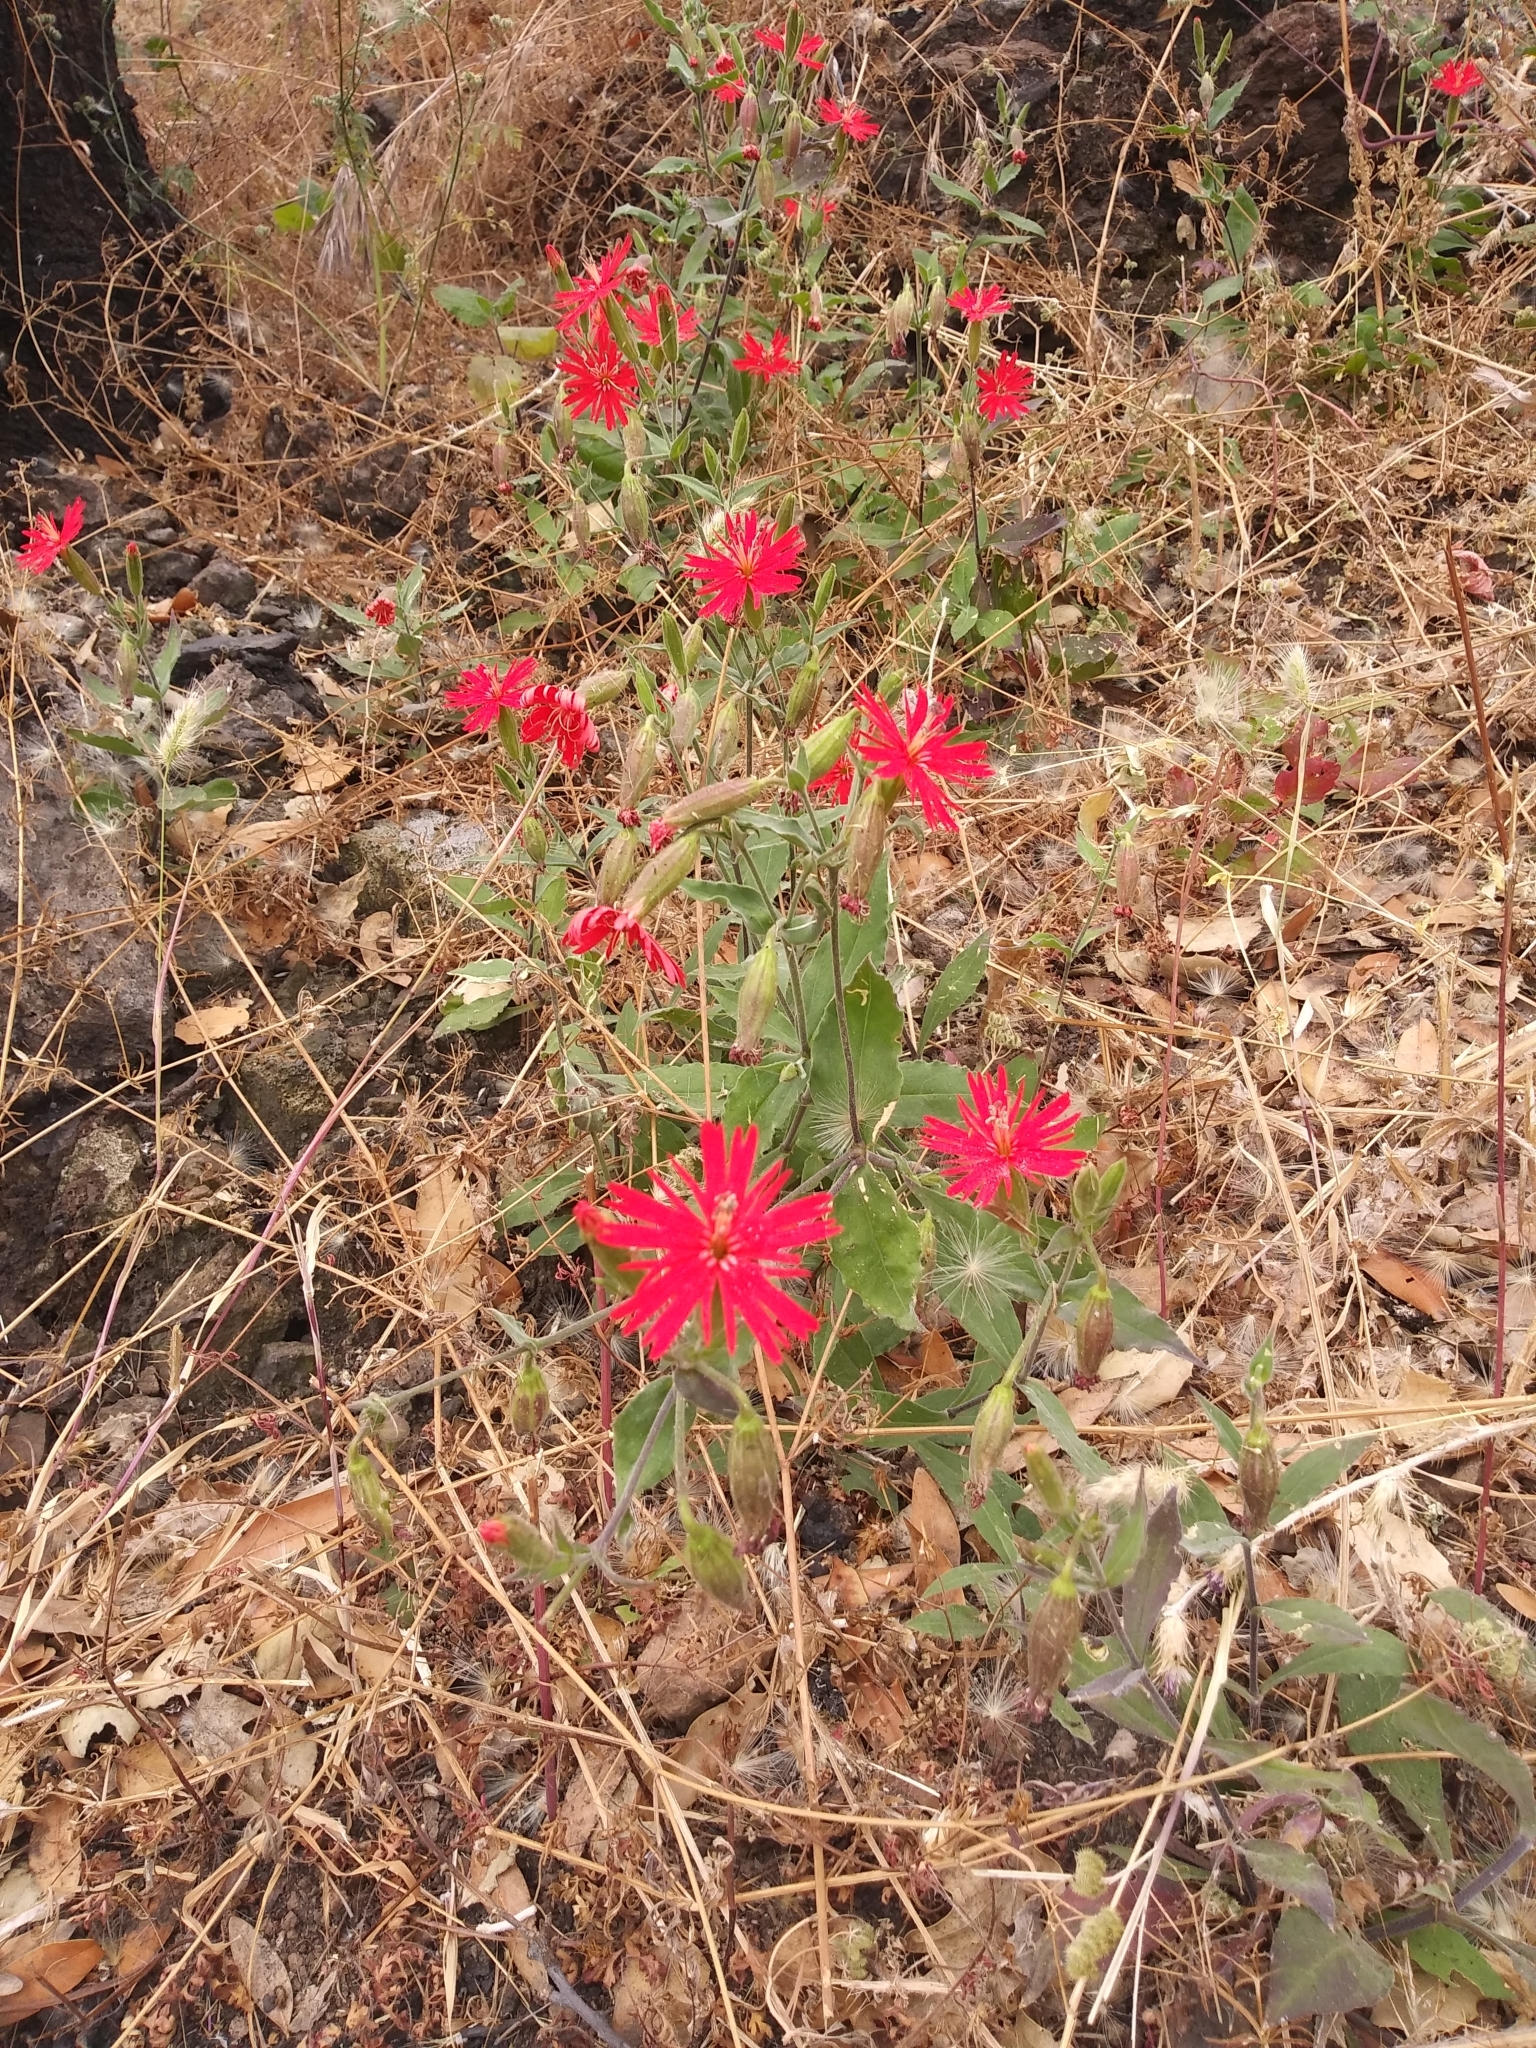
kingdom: Plantae
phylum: Tracheophyta
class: Magnoliopsida
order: Caryophyllales
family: Caryophyllaceae
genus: Silene
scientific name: Silene laciniata
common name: Indian-pink
